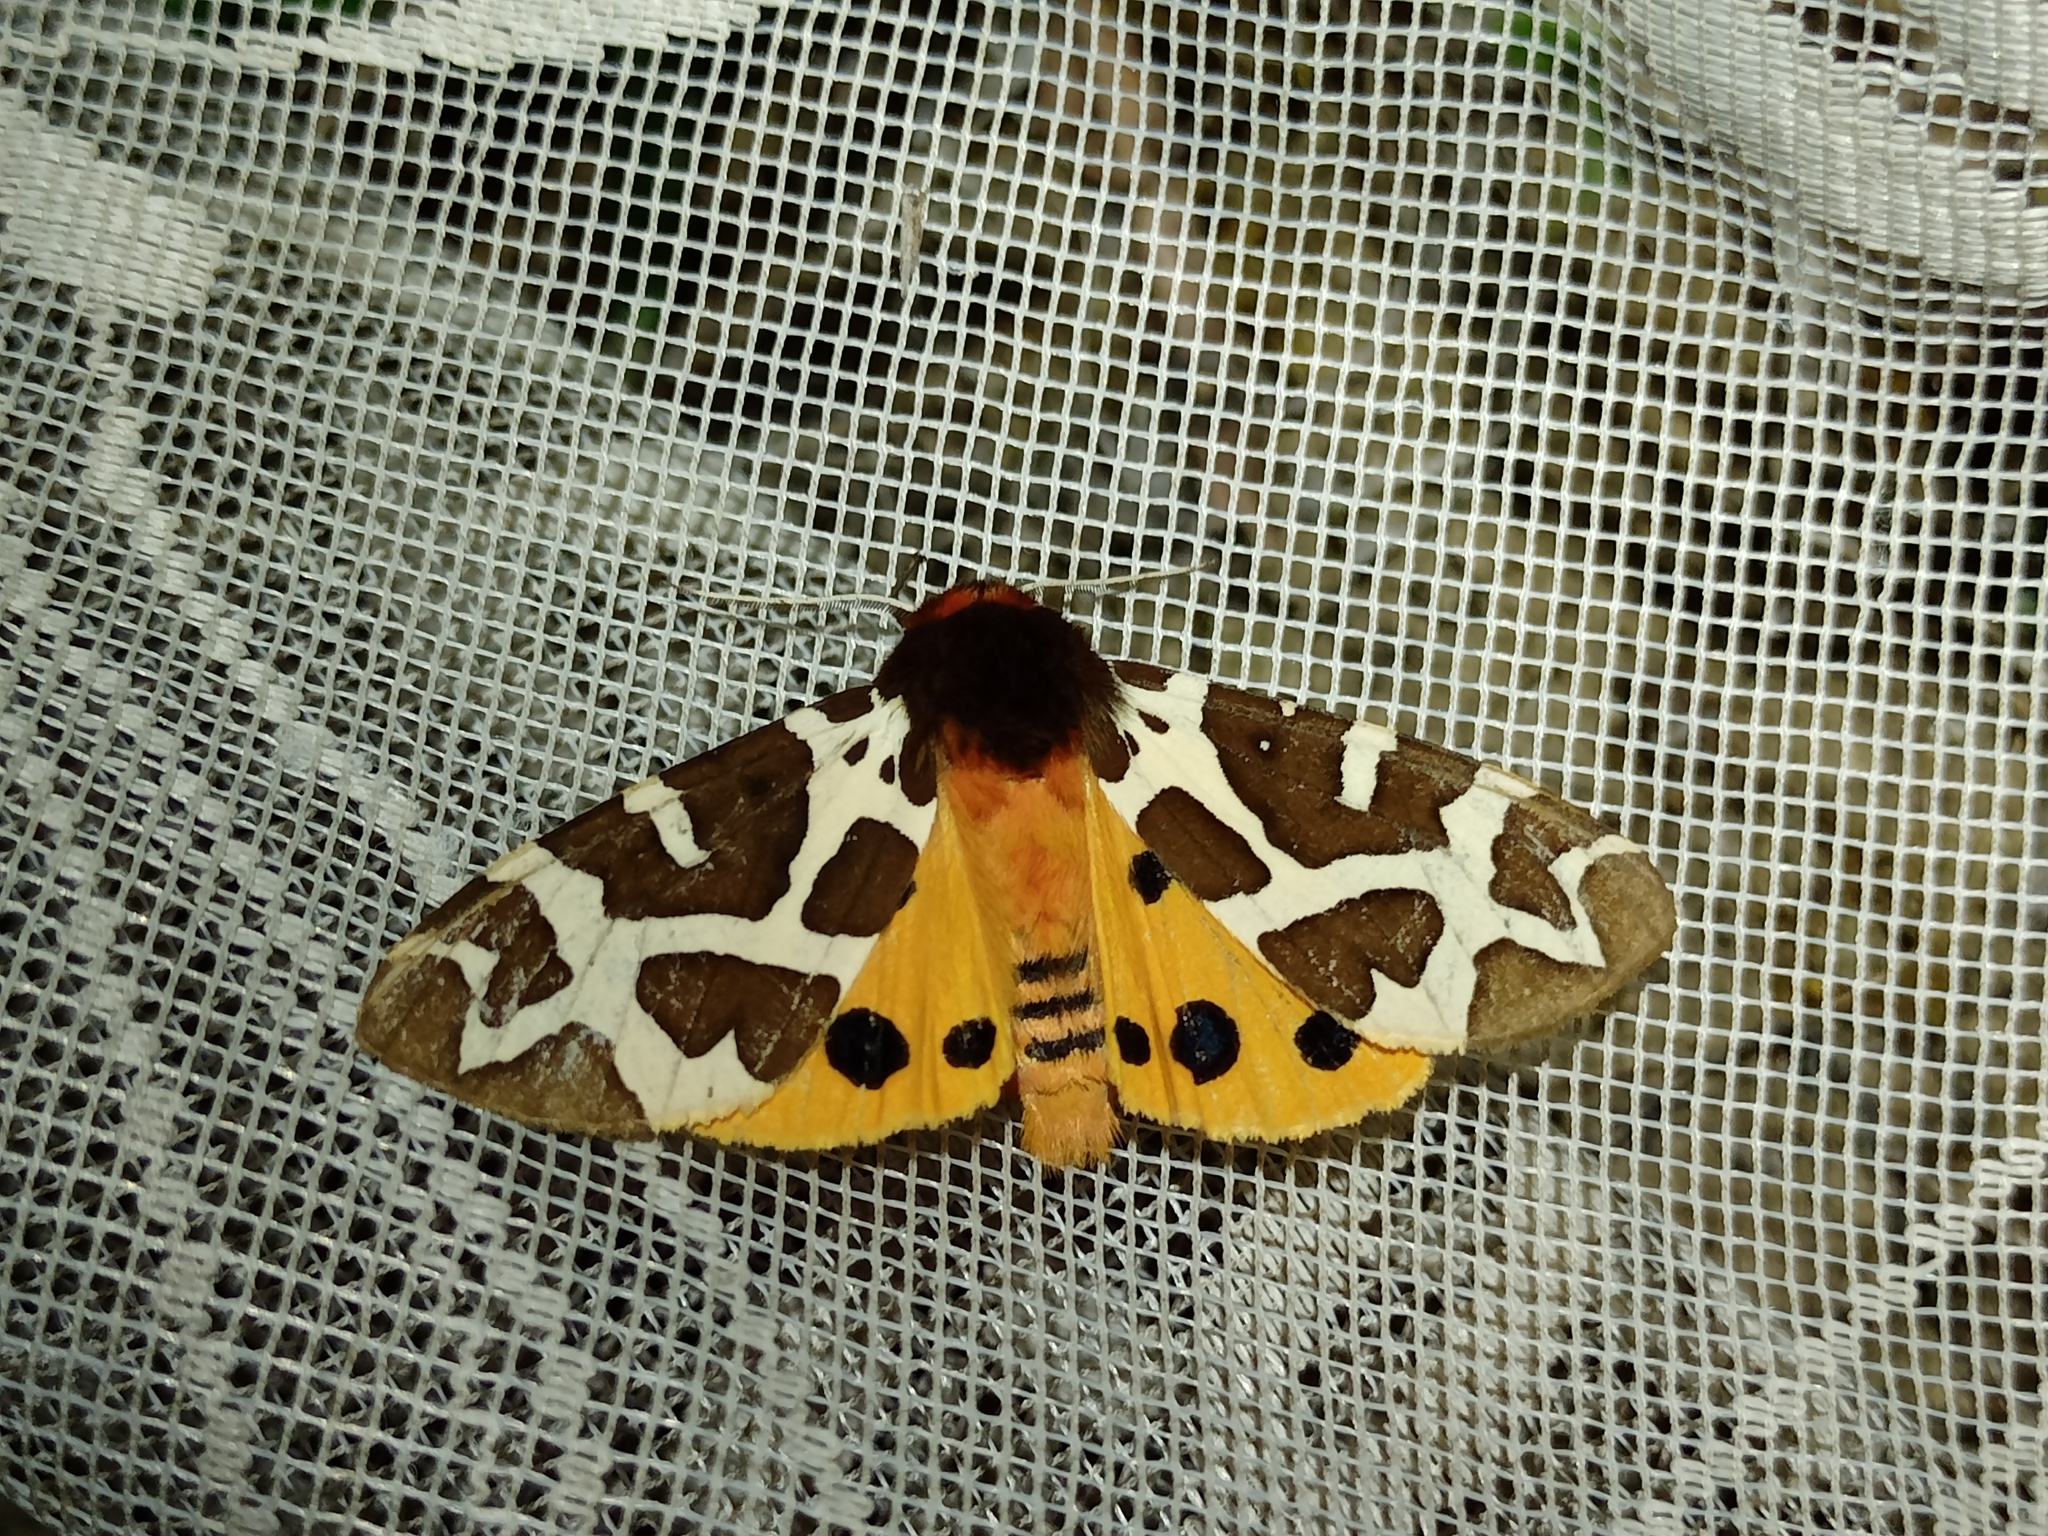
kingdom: Animalia
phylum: Arthropoda
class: Insecta
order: Lepidoptera
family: Erebidae
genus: Arctia
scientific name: Arctia caja
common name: Garden tiger
